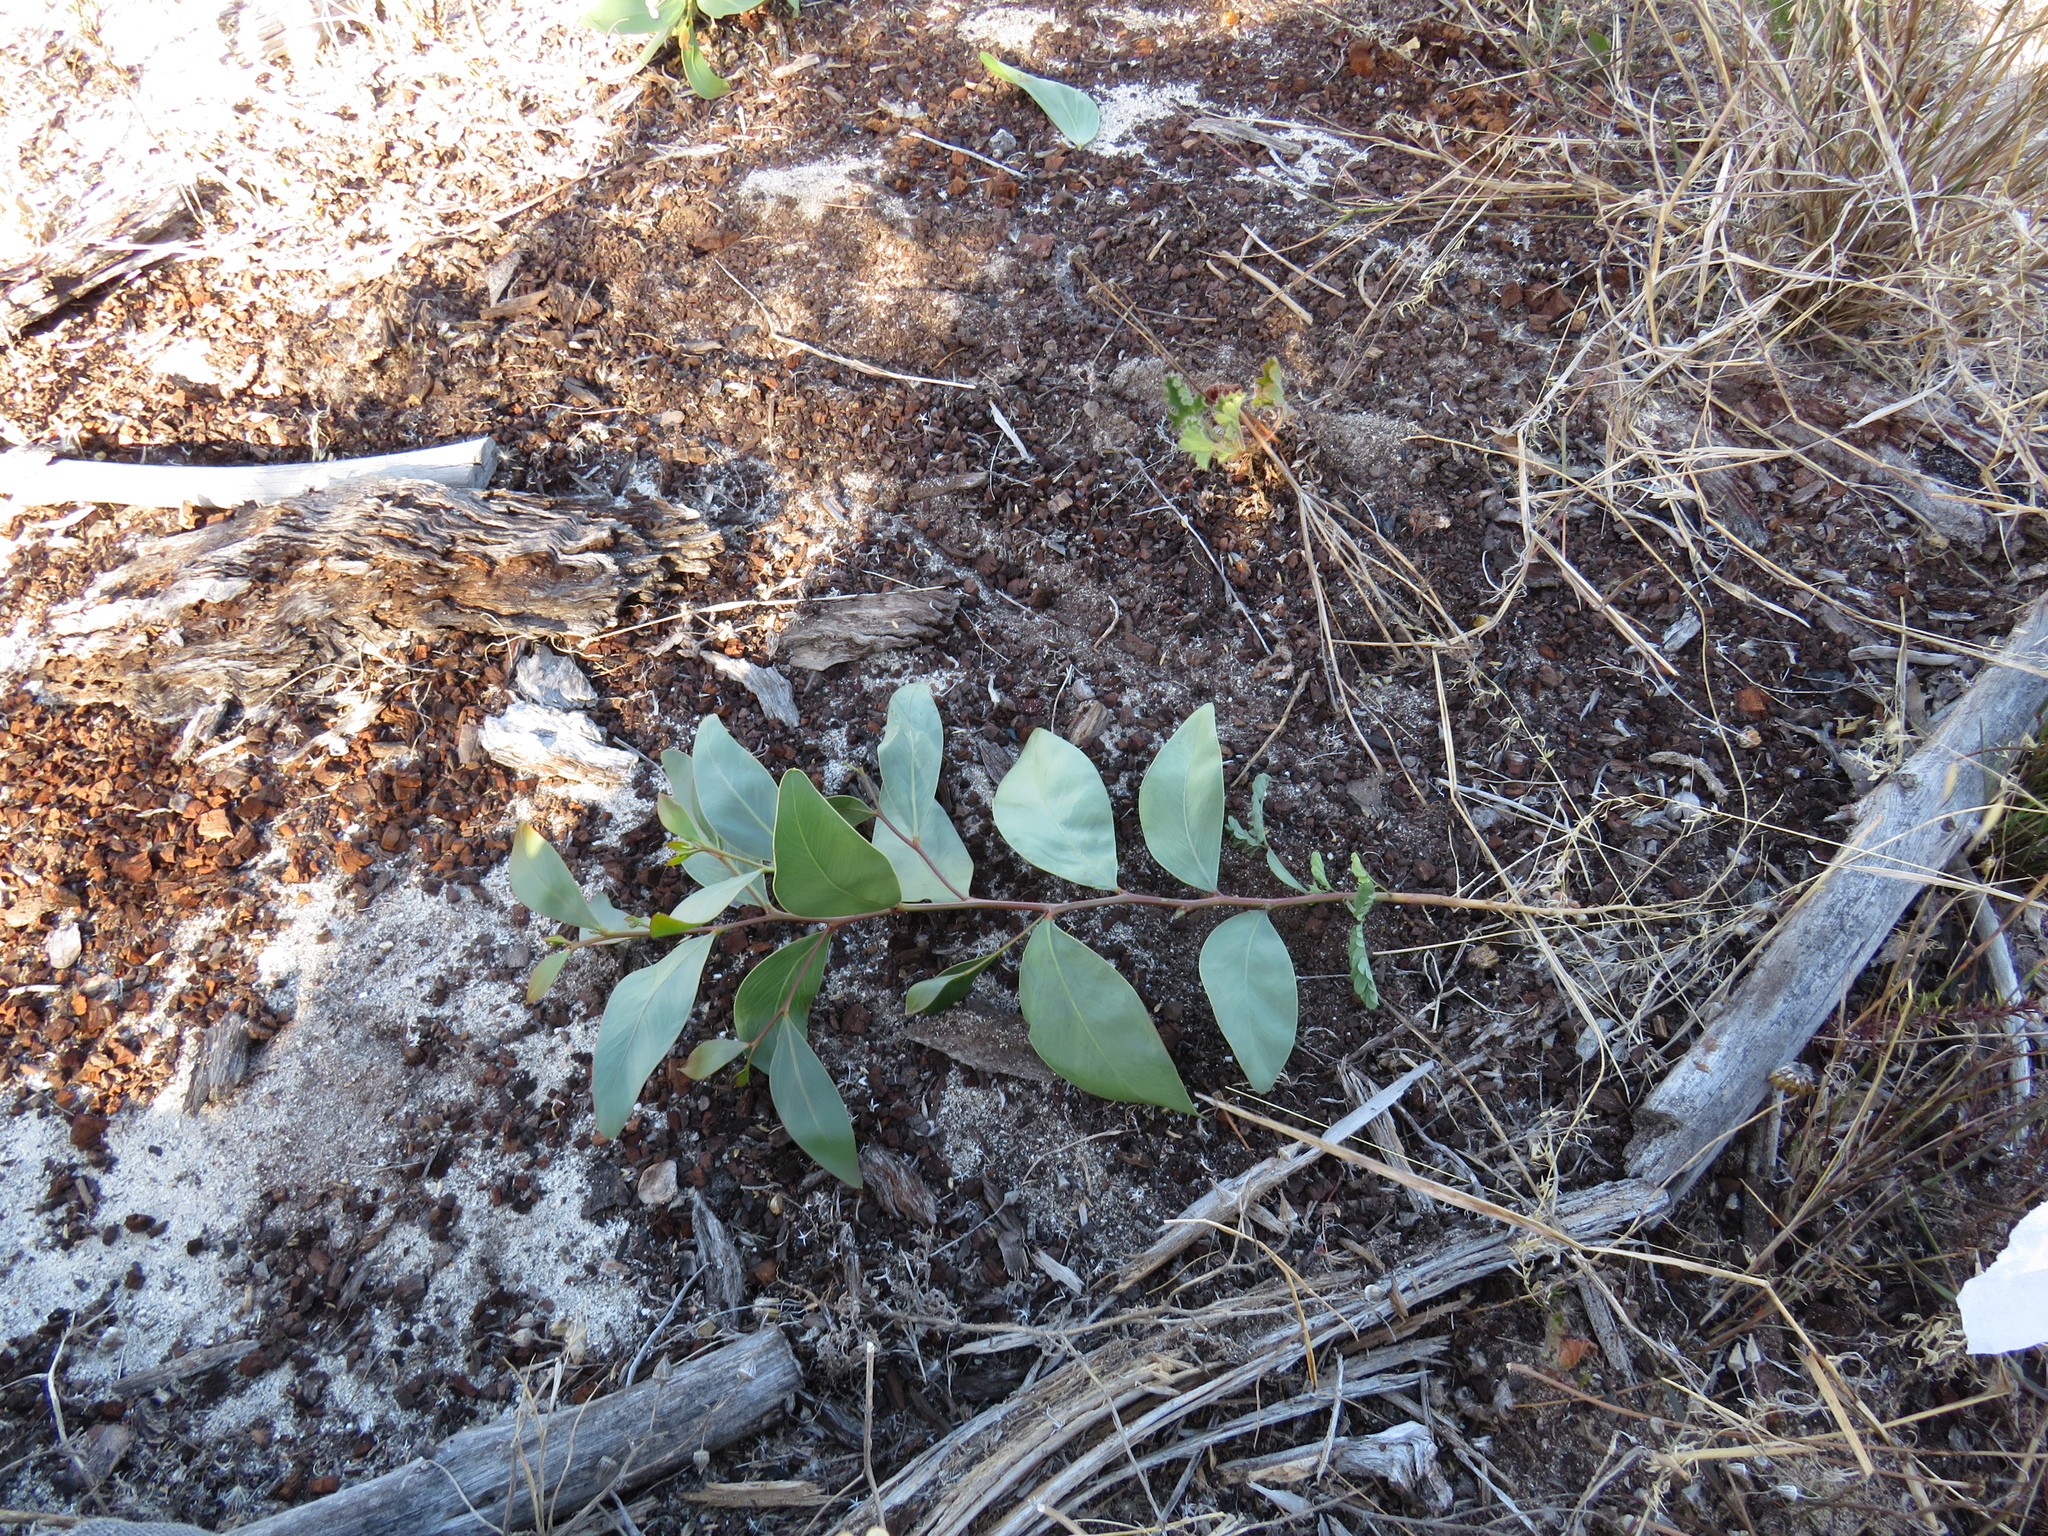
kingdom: Plantae
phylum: Tracheophyta
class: Magnoliopsida
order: Fabales
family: Fabaceae
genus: Acacia
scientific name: Acacia pycnantha
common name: Golden wattle
